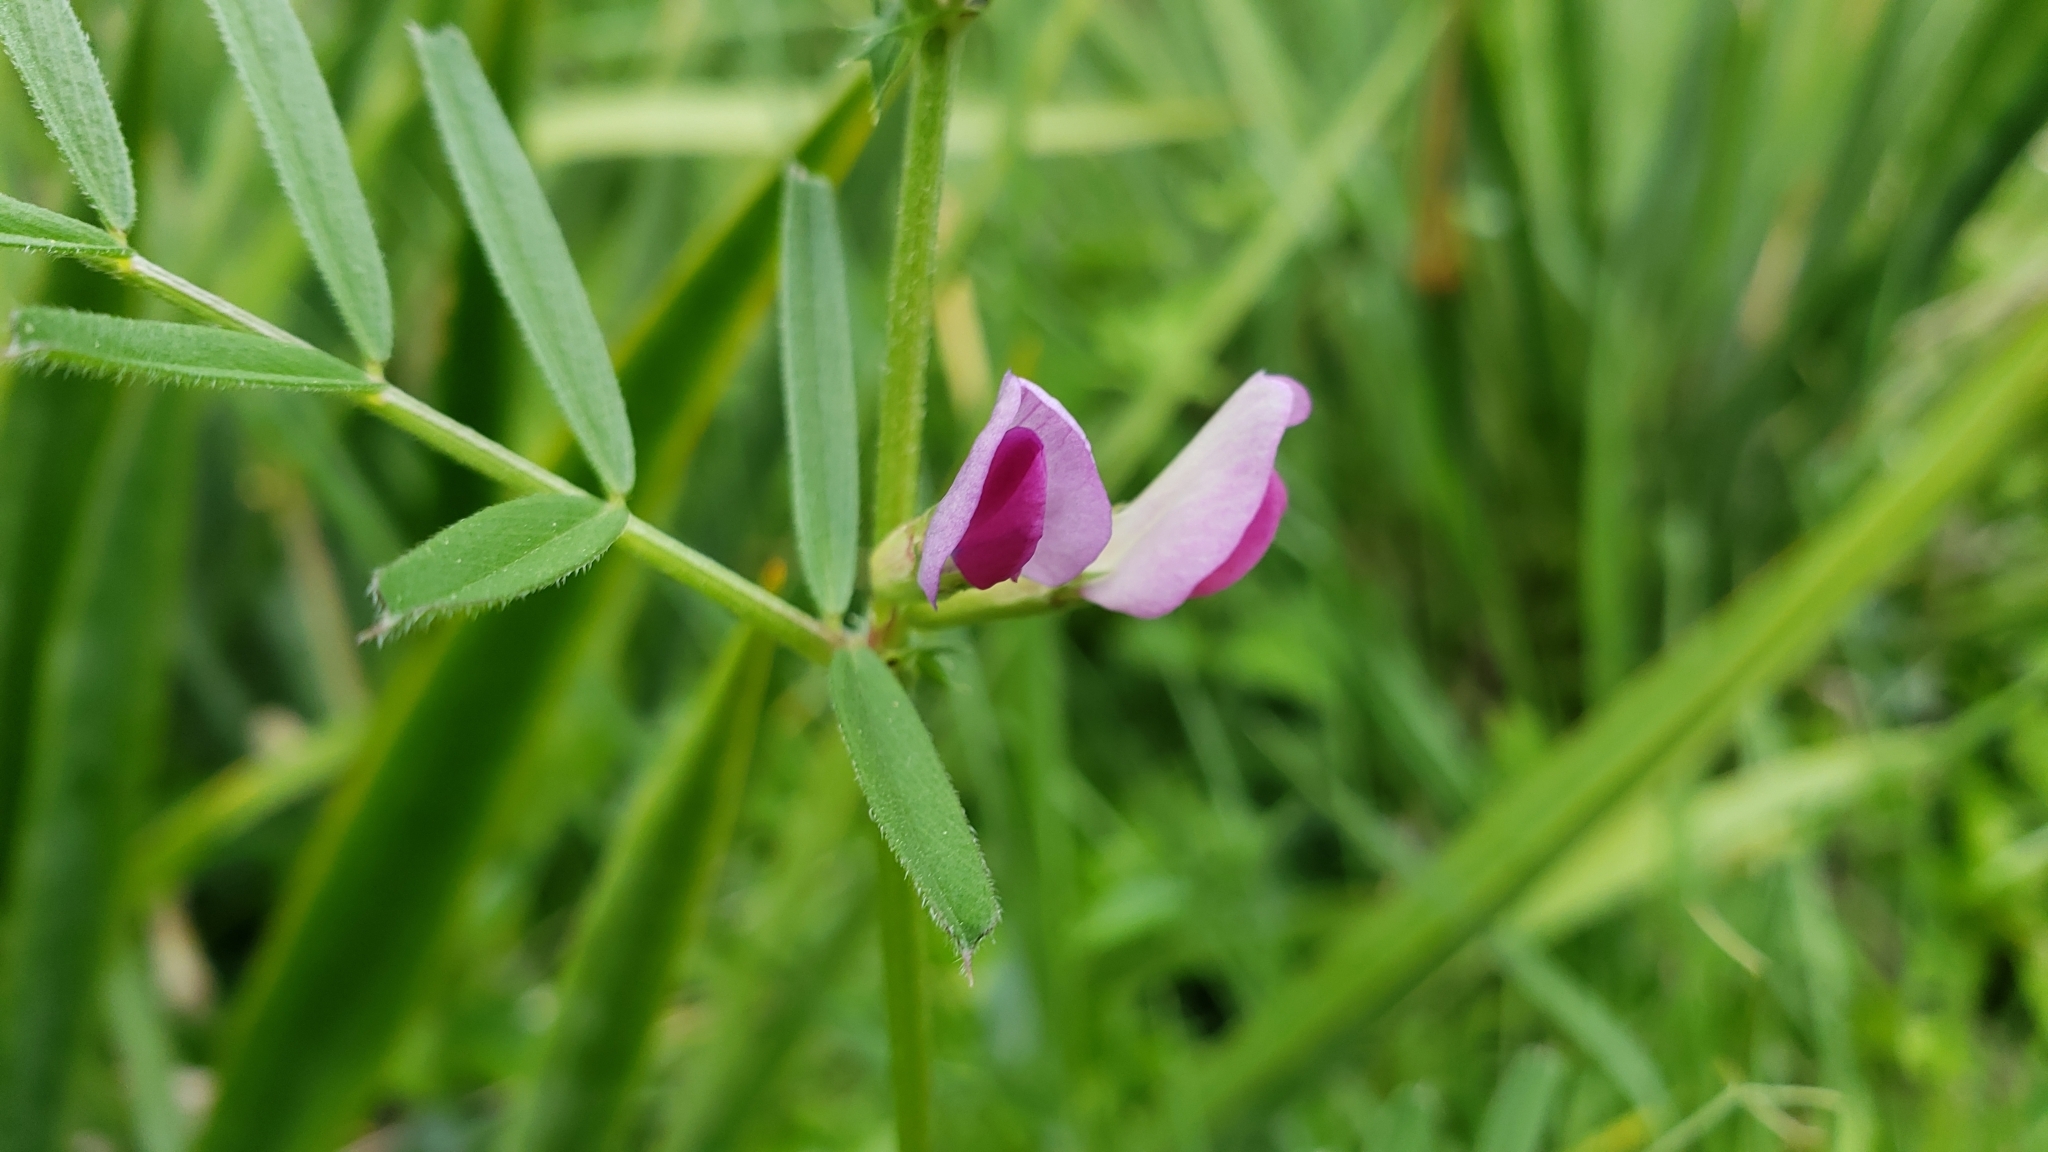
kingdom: Plantae
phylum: Tracheophyta
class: Magnoliopsida
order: Fabales
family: Fabaceae
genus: Vicia
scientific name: Vicia sativa
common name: Garden vetch
